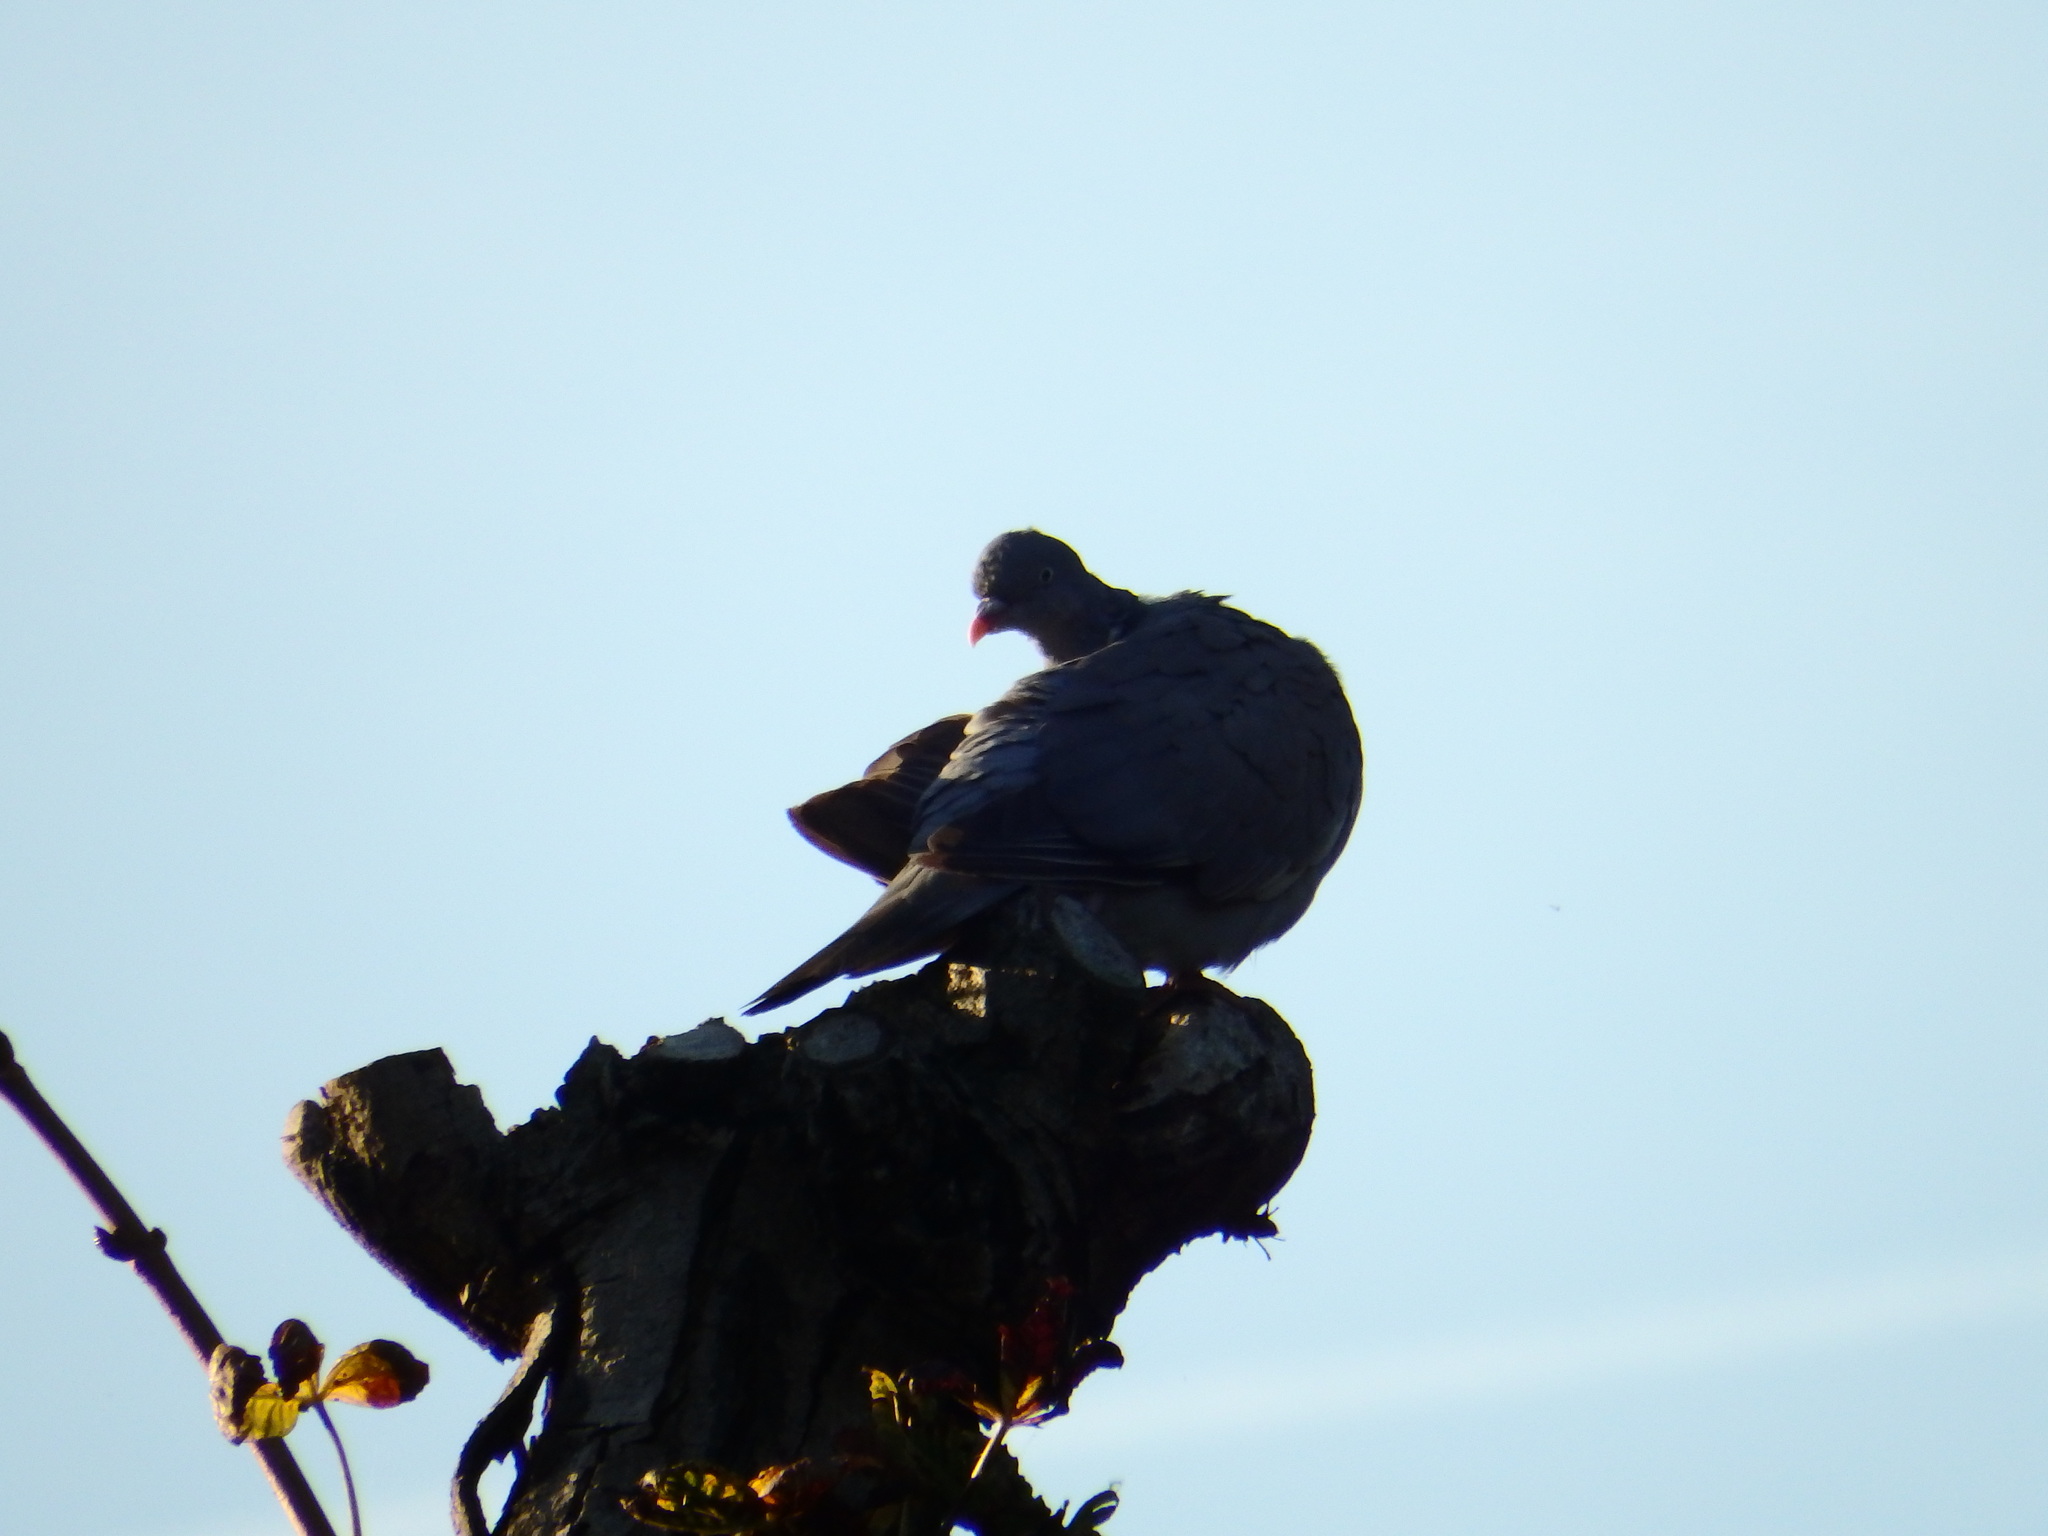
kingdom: Animalia
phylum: Chordata
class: Aves
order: Columbiformes
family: Columbidae
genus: Columba
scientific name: Columba palumbus
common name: Common wood pigeon
